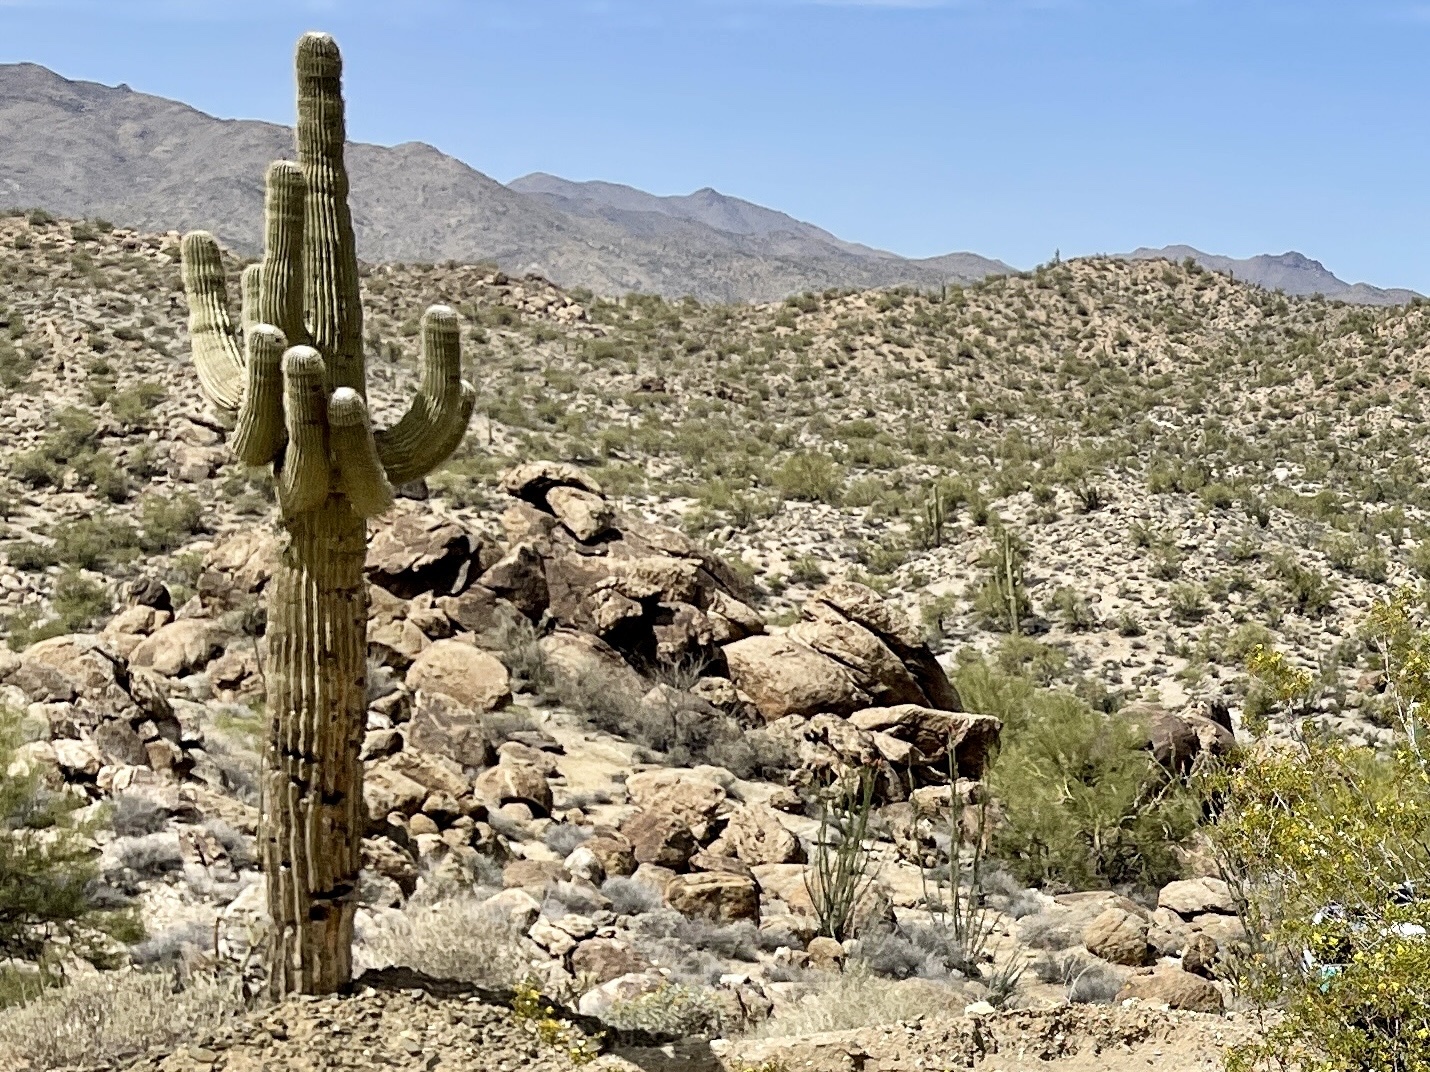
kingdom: Plantae
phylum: Tracheophyta
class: Magnoliopsida
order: Caryophyllales
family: Cactaceae
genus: Carnegiea
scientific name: Carnegiea gigantea
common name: Saguaro
